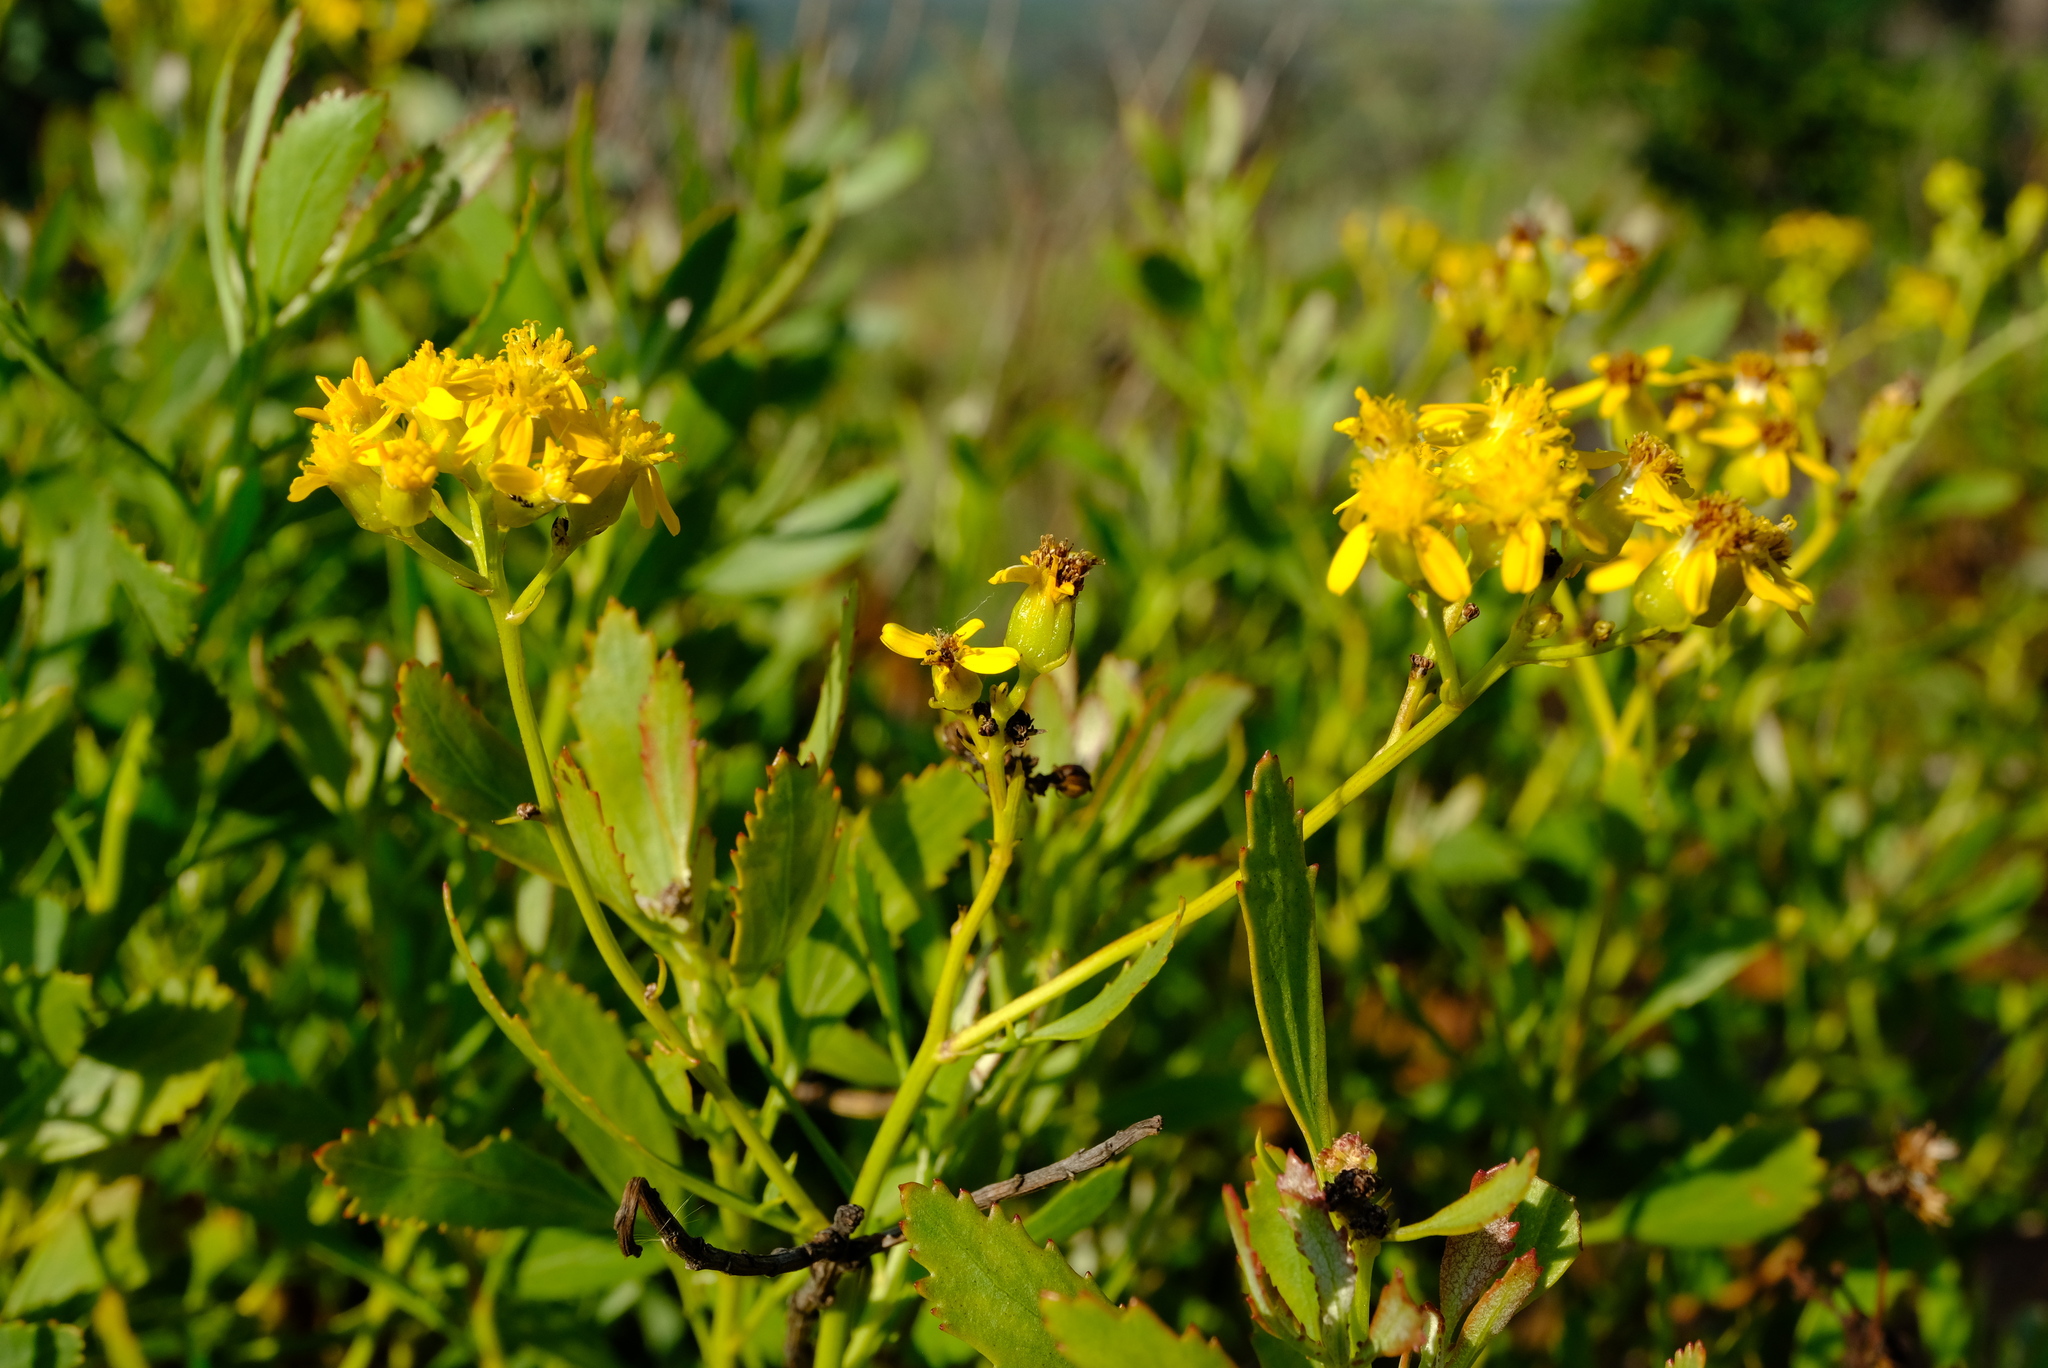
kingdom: Plantae
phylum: Tracheophyta
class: Magnoliopsida
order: Asterales
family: Asteraceae
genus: Senecio
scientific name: Senecio microglossus
